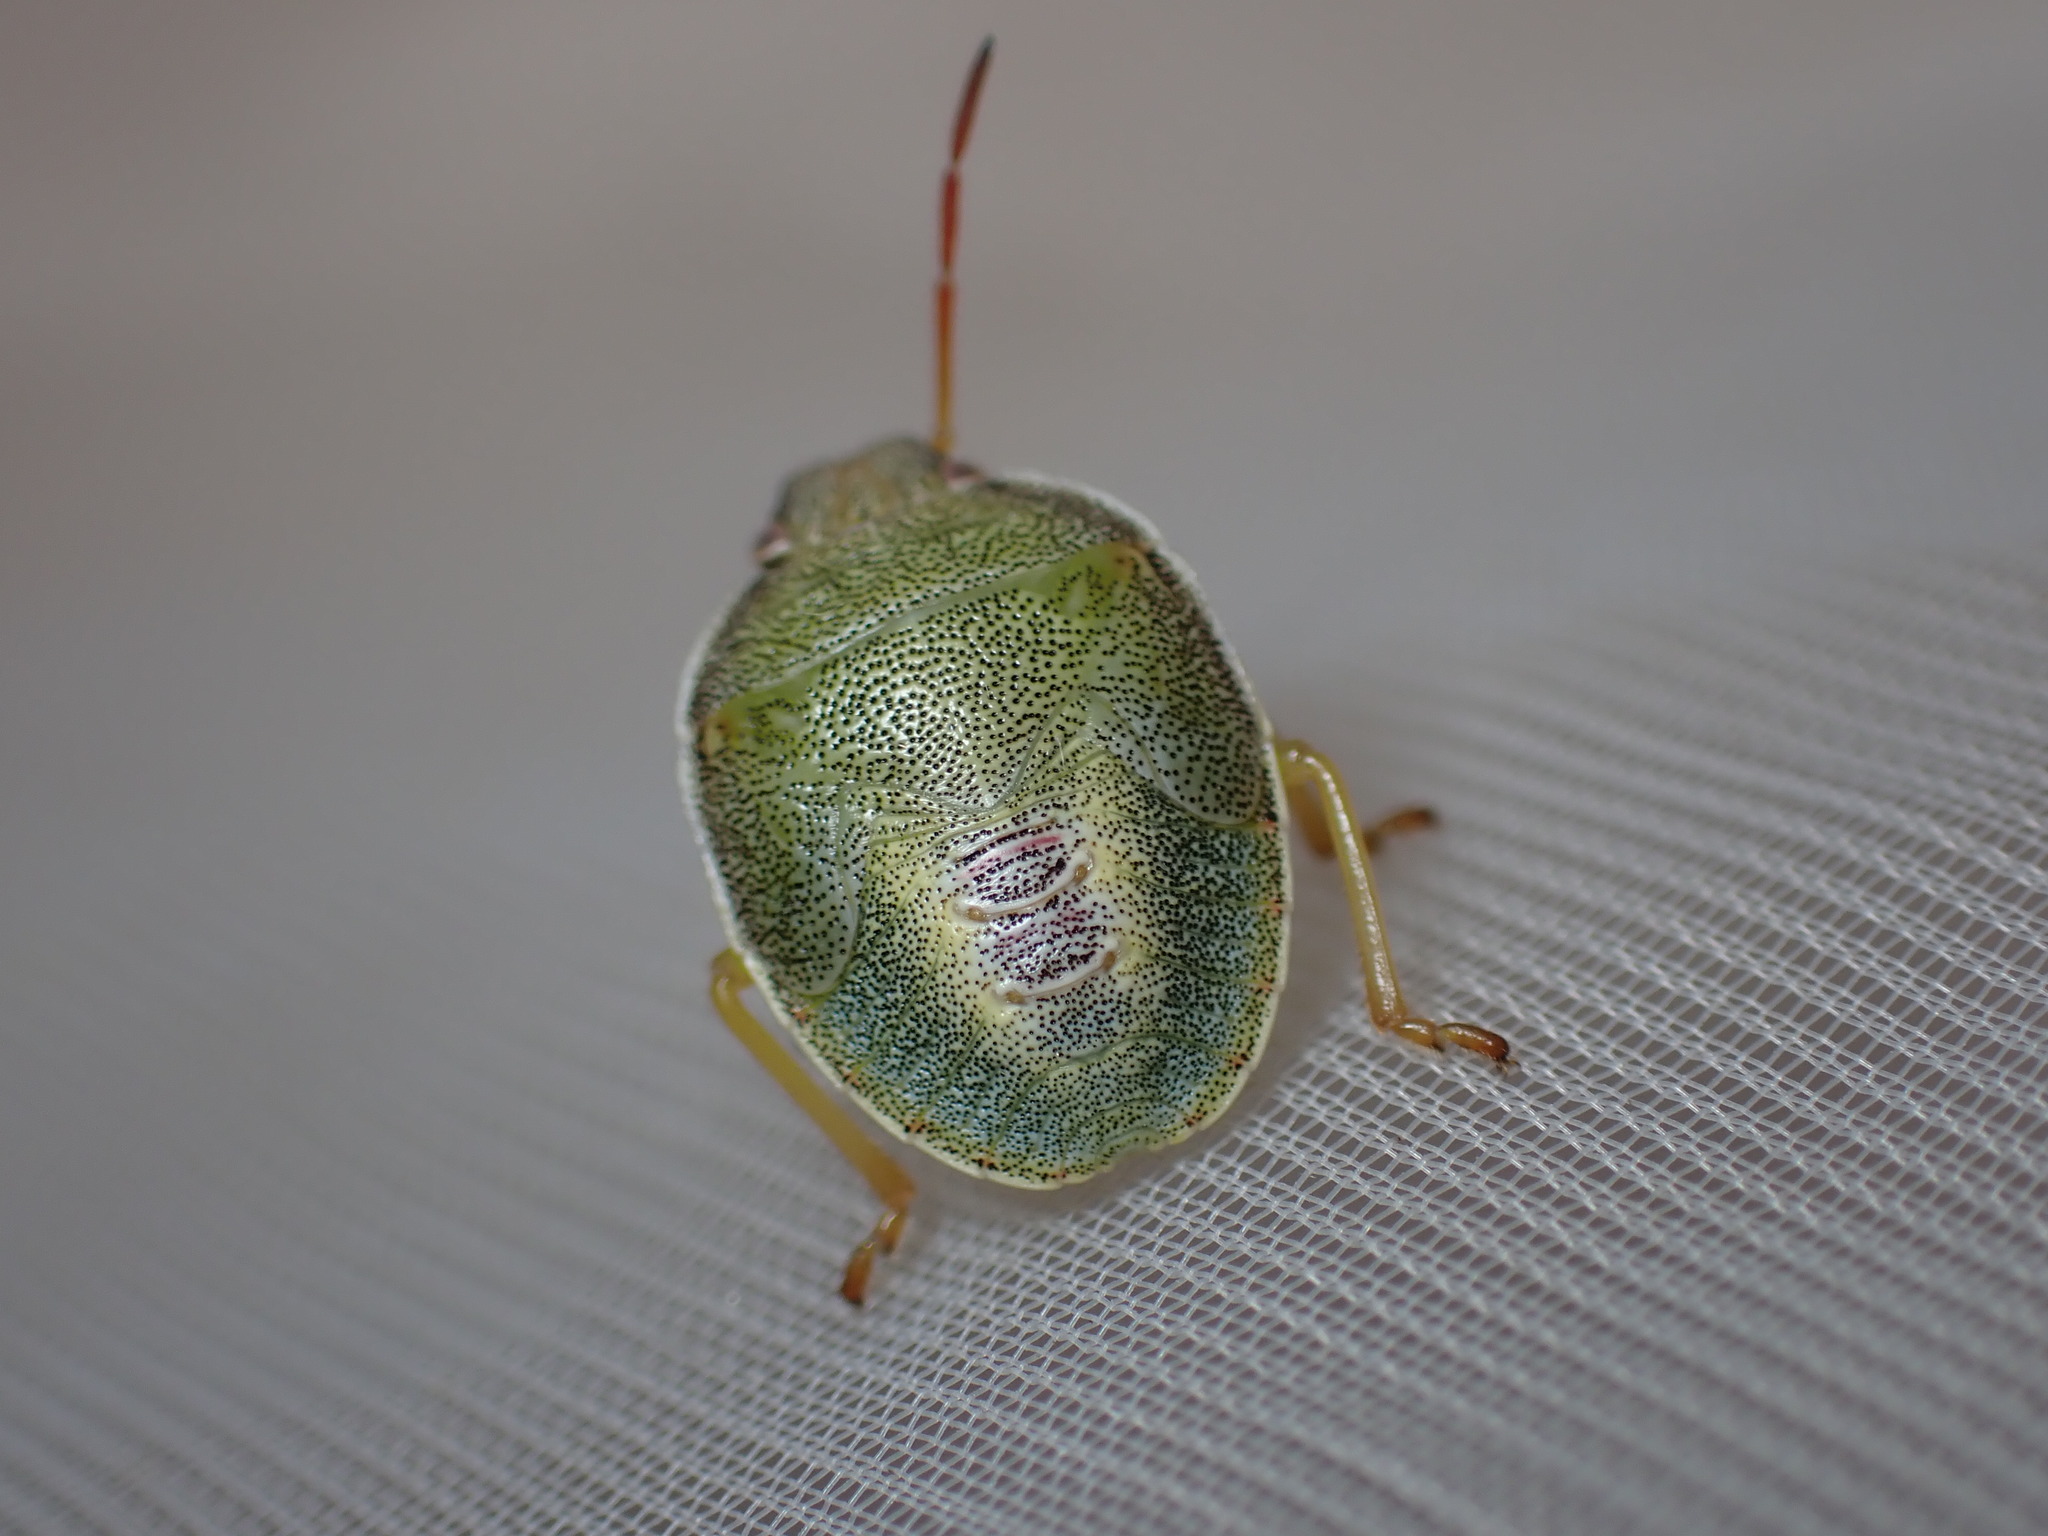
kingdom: Animalia
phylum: Arthropoda
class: Insecta
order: Hemiptera
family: Pentatomidae
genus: Piezodorus
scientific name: Piezodorus lituratus
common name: Stink bug
